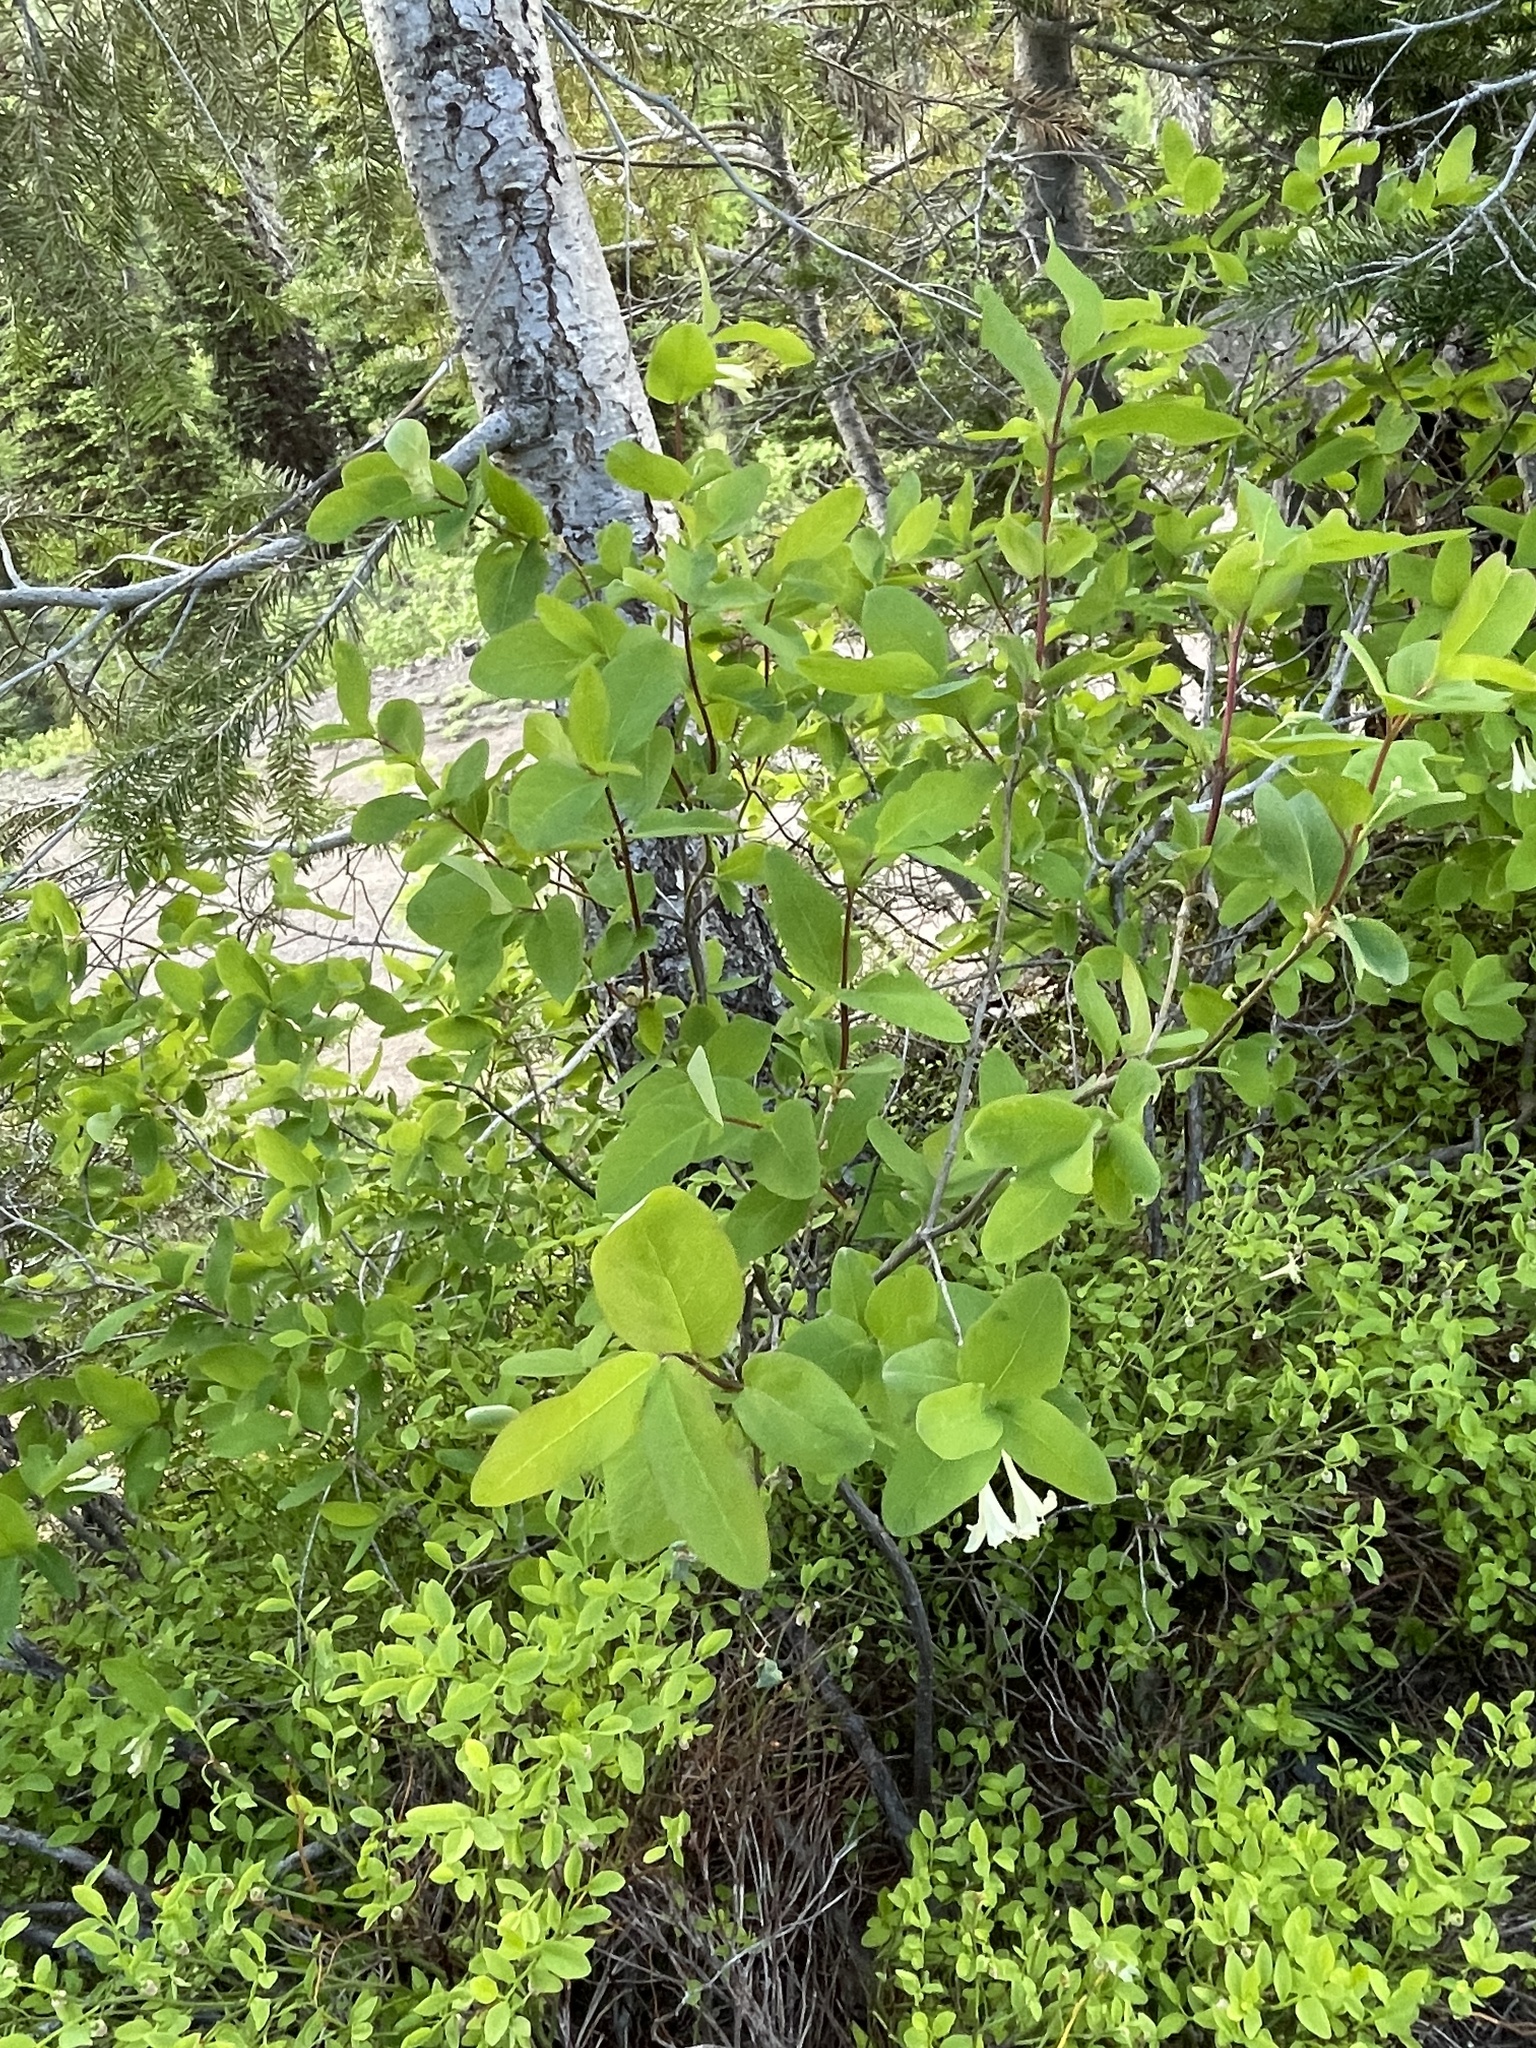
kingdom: Plantae
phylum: Tracheophyta
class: Magnoliopsida
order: Dipsacales
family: Caprifoliaceae
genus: Lonicera
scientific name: Lonicera utahensis
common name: Utah honeysuckle
